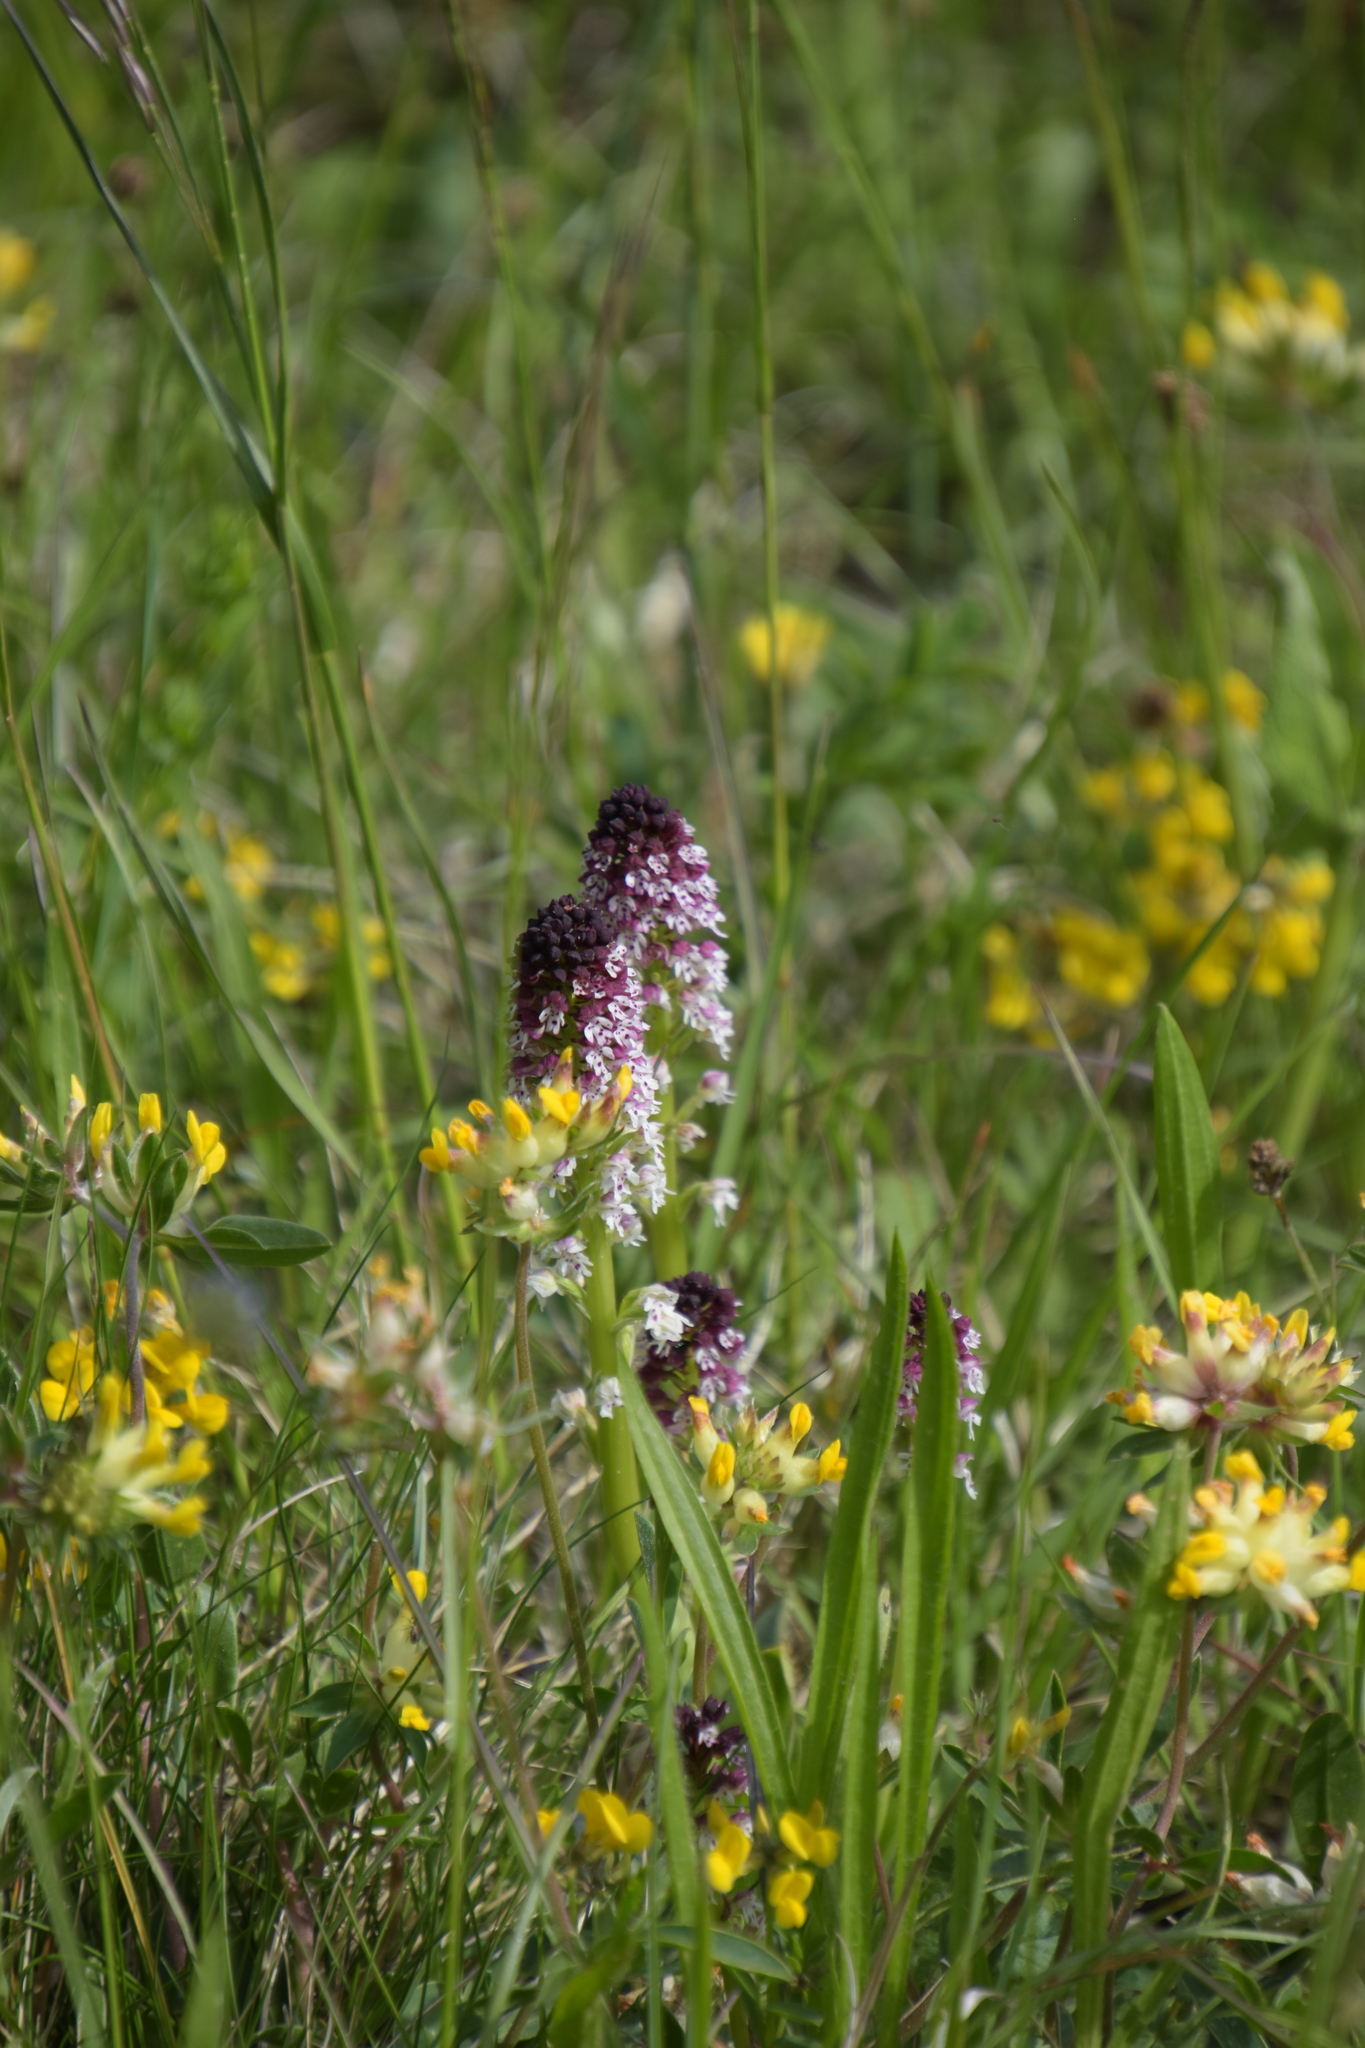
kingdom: Plantae
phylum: Tracheophyta
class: Liliopsida
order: Asparagales
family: Orchidaceae
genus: Neotinea
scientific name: Neotinea ustulata
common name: Burnt orchid
